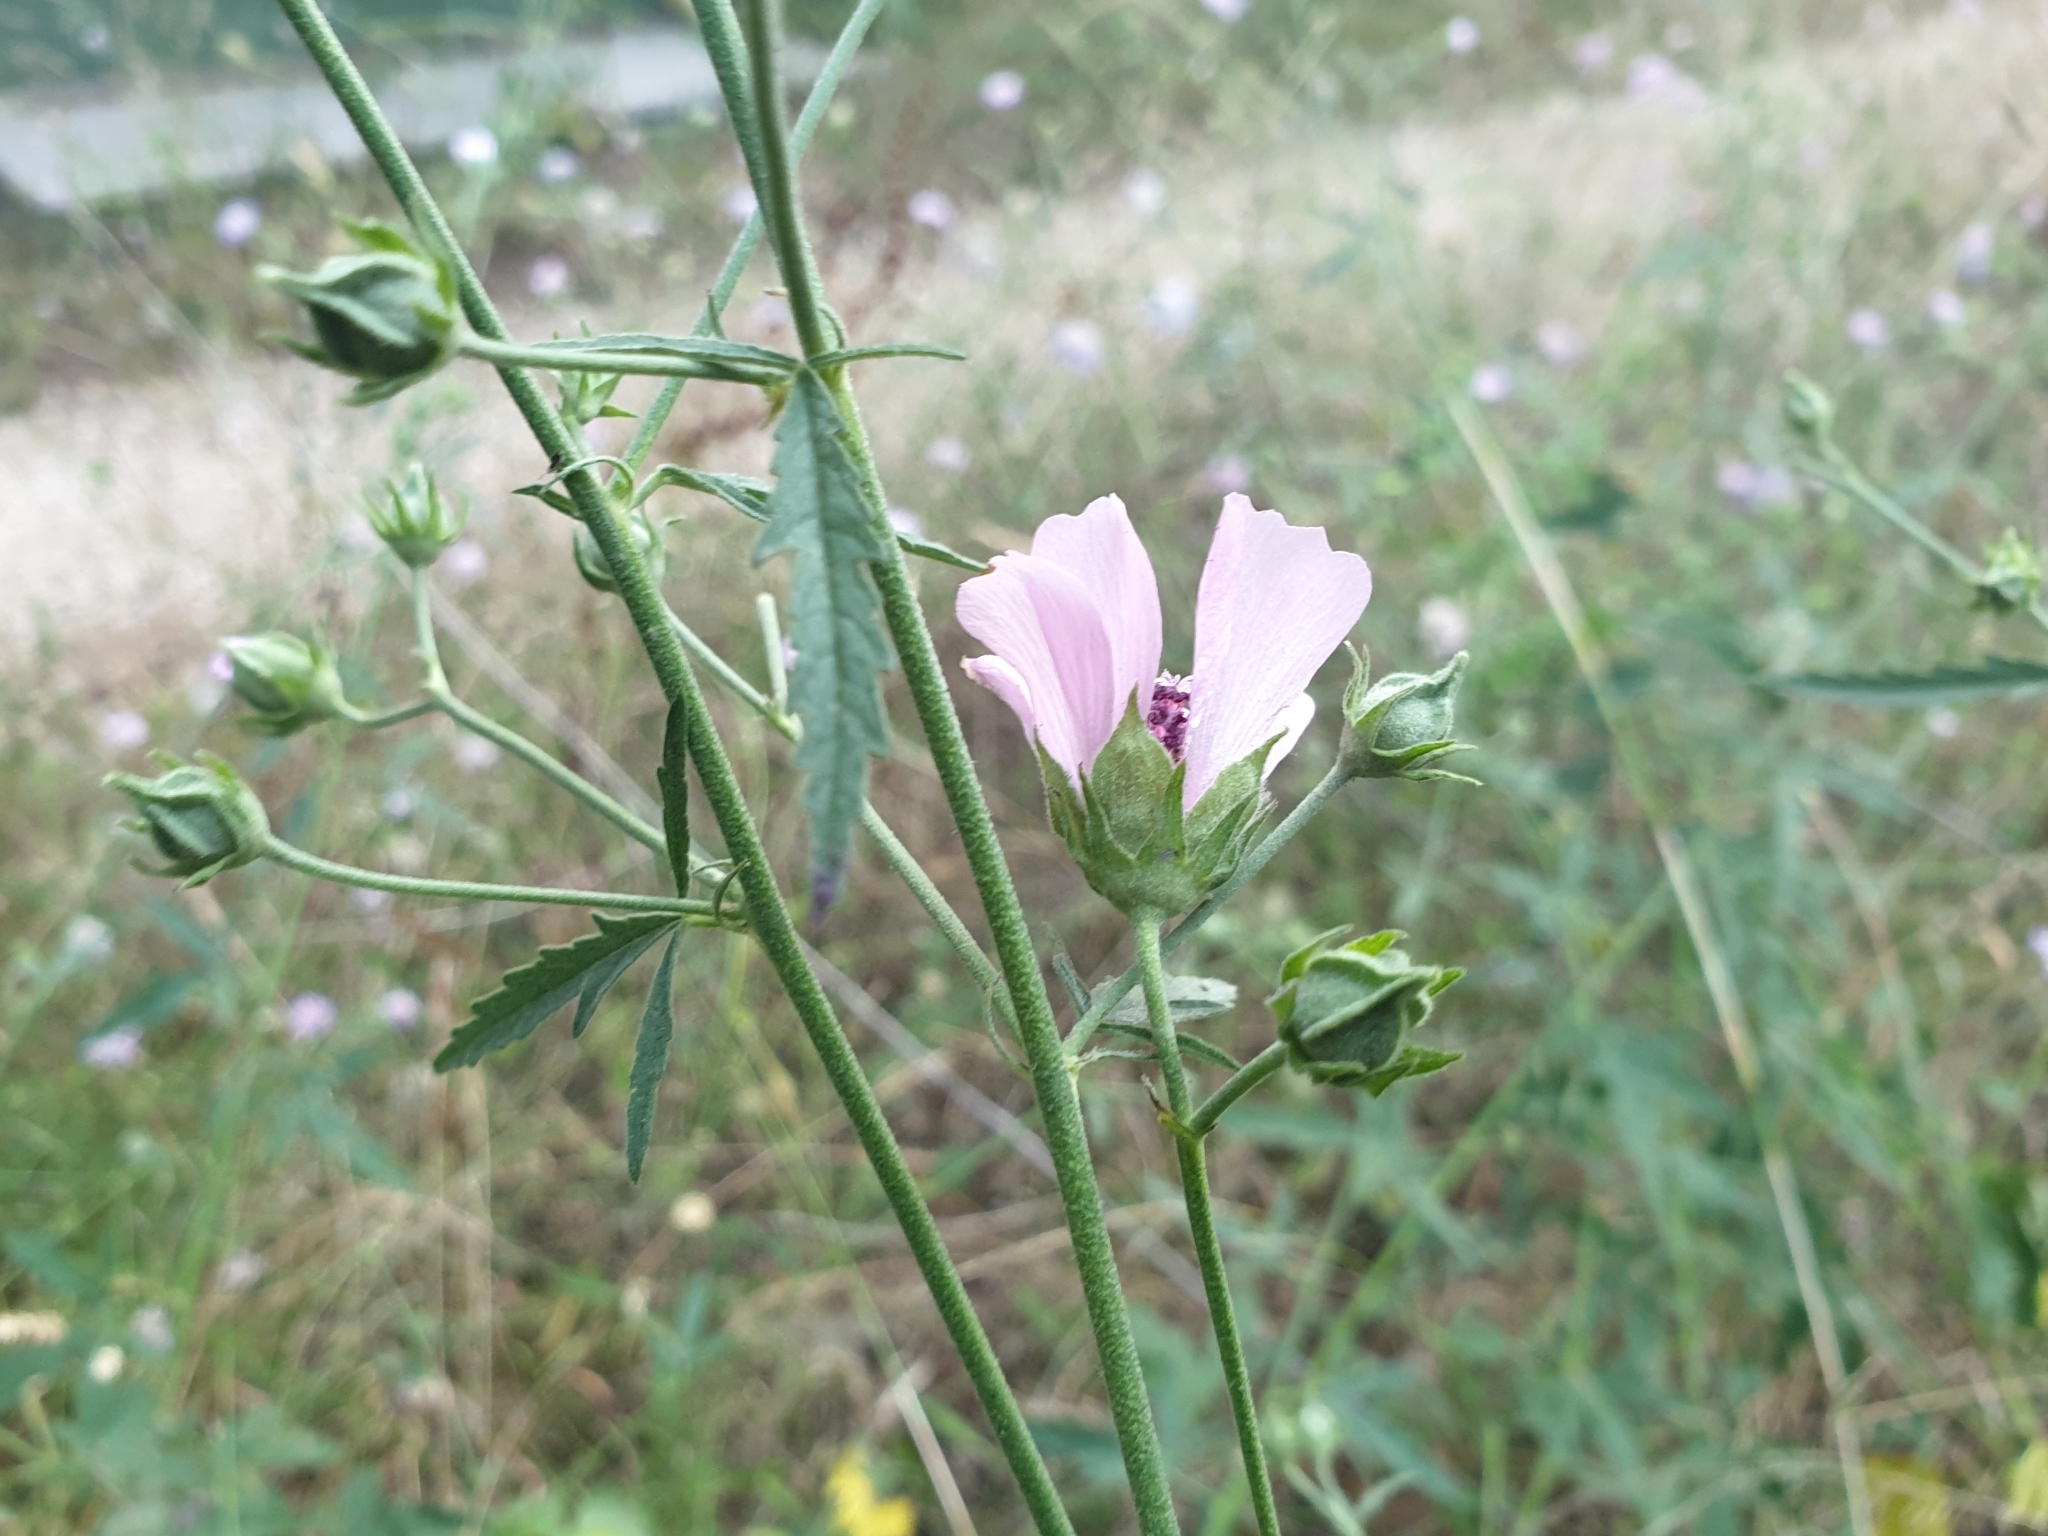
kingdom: Plantae
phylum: Tracheophyta
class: Magnoliopsida
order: Malvales
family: Malvaceae
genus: Althaea
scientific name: Althaea cannabina
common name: Palm-leaf marshmallow
